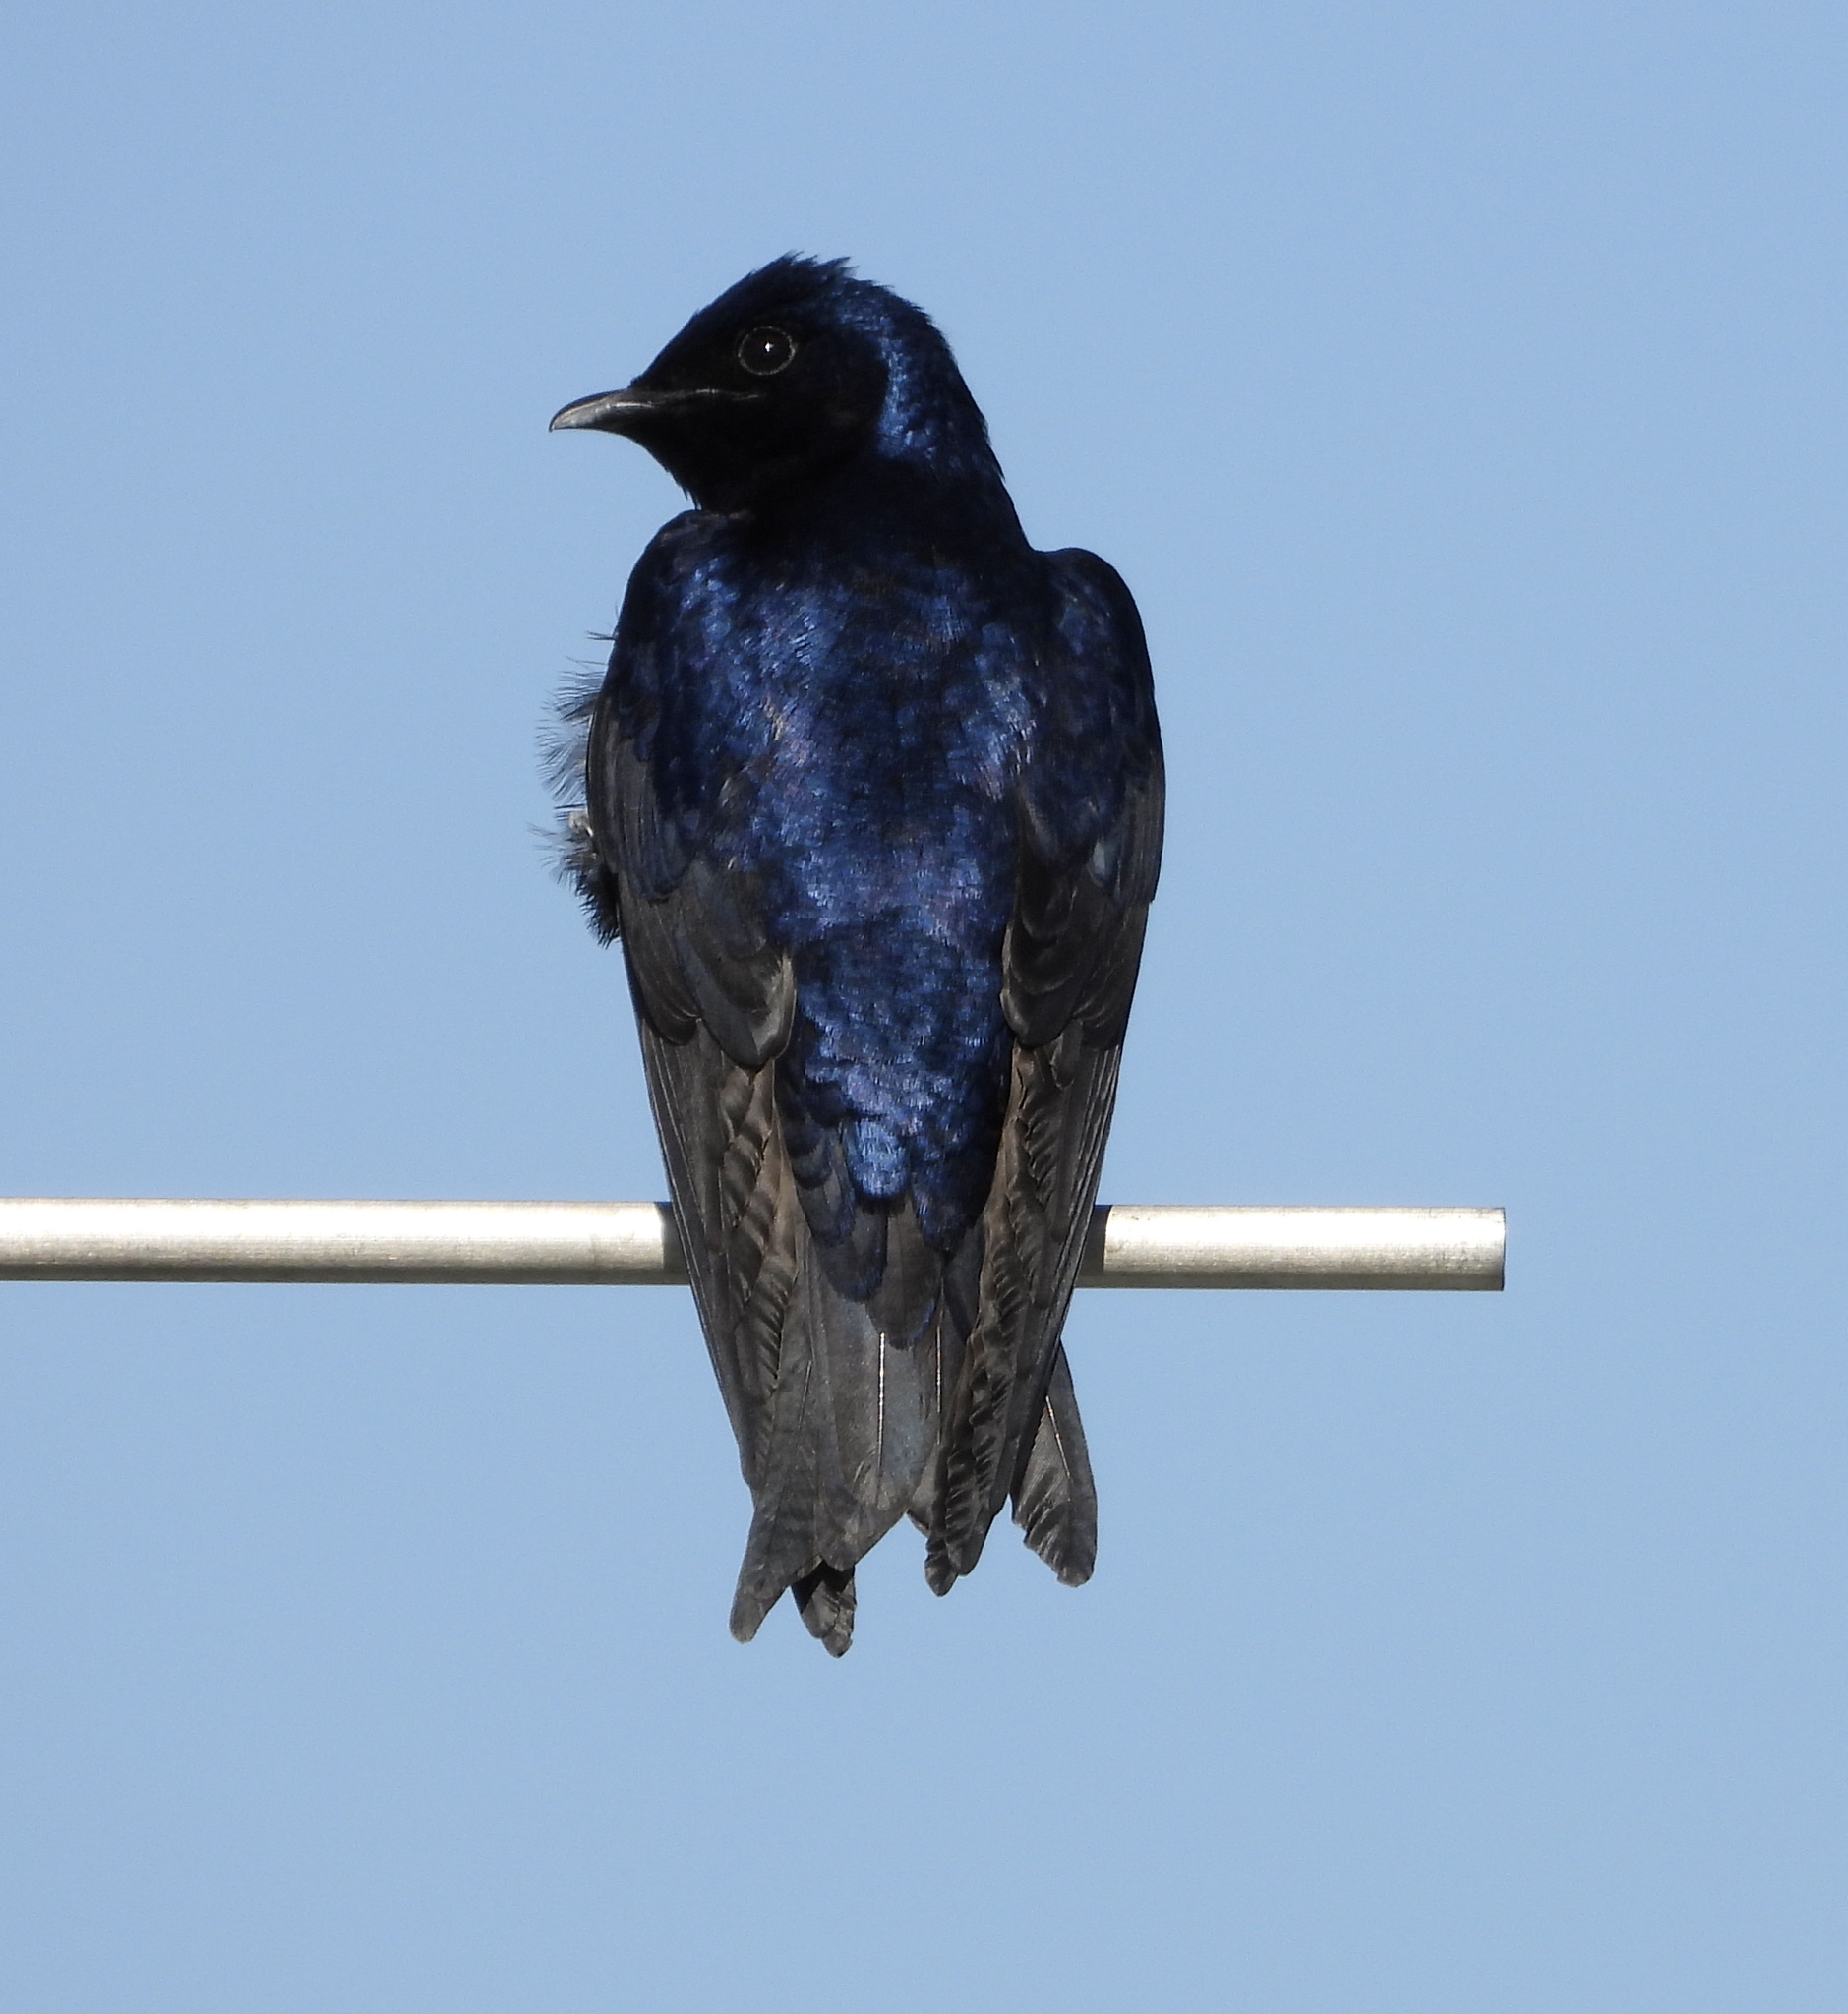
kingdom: Animalia
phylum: Chordata
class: Aves
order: Passeriformes
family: Hirundinidae
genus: Progne
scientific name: Progne subis
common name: Purple martin
